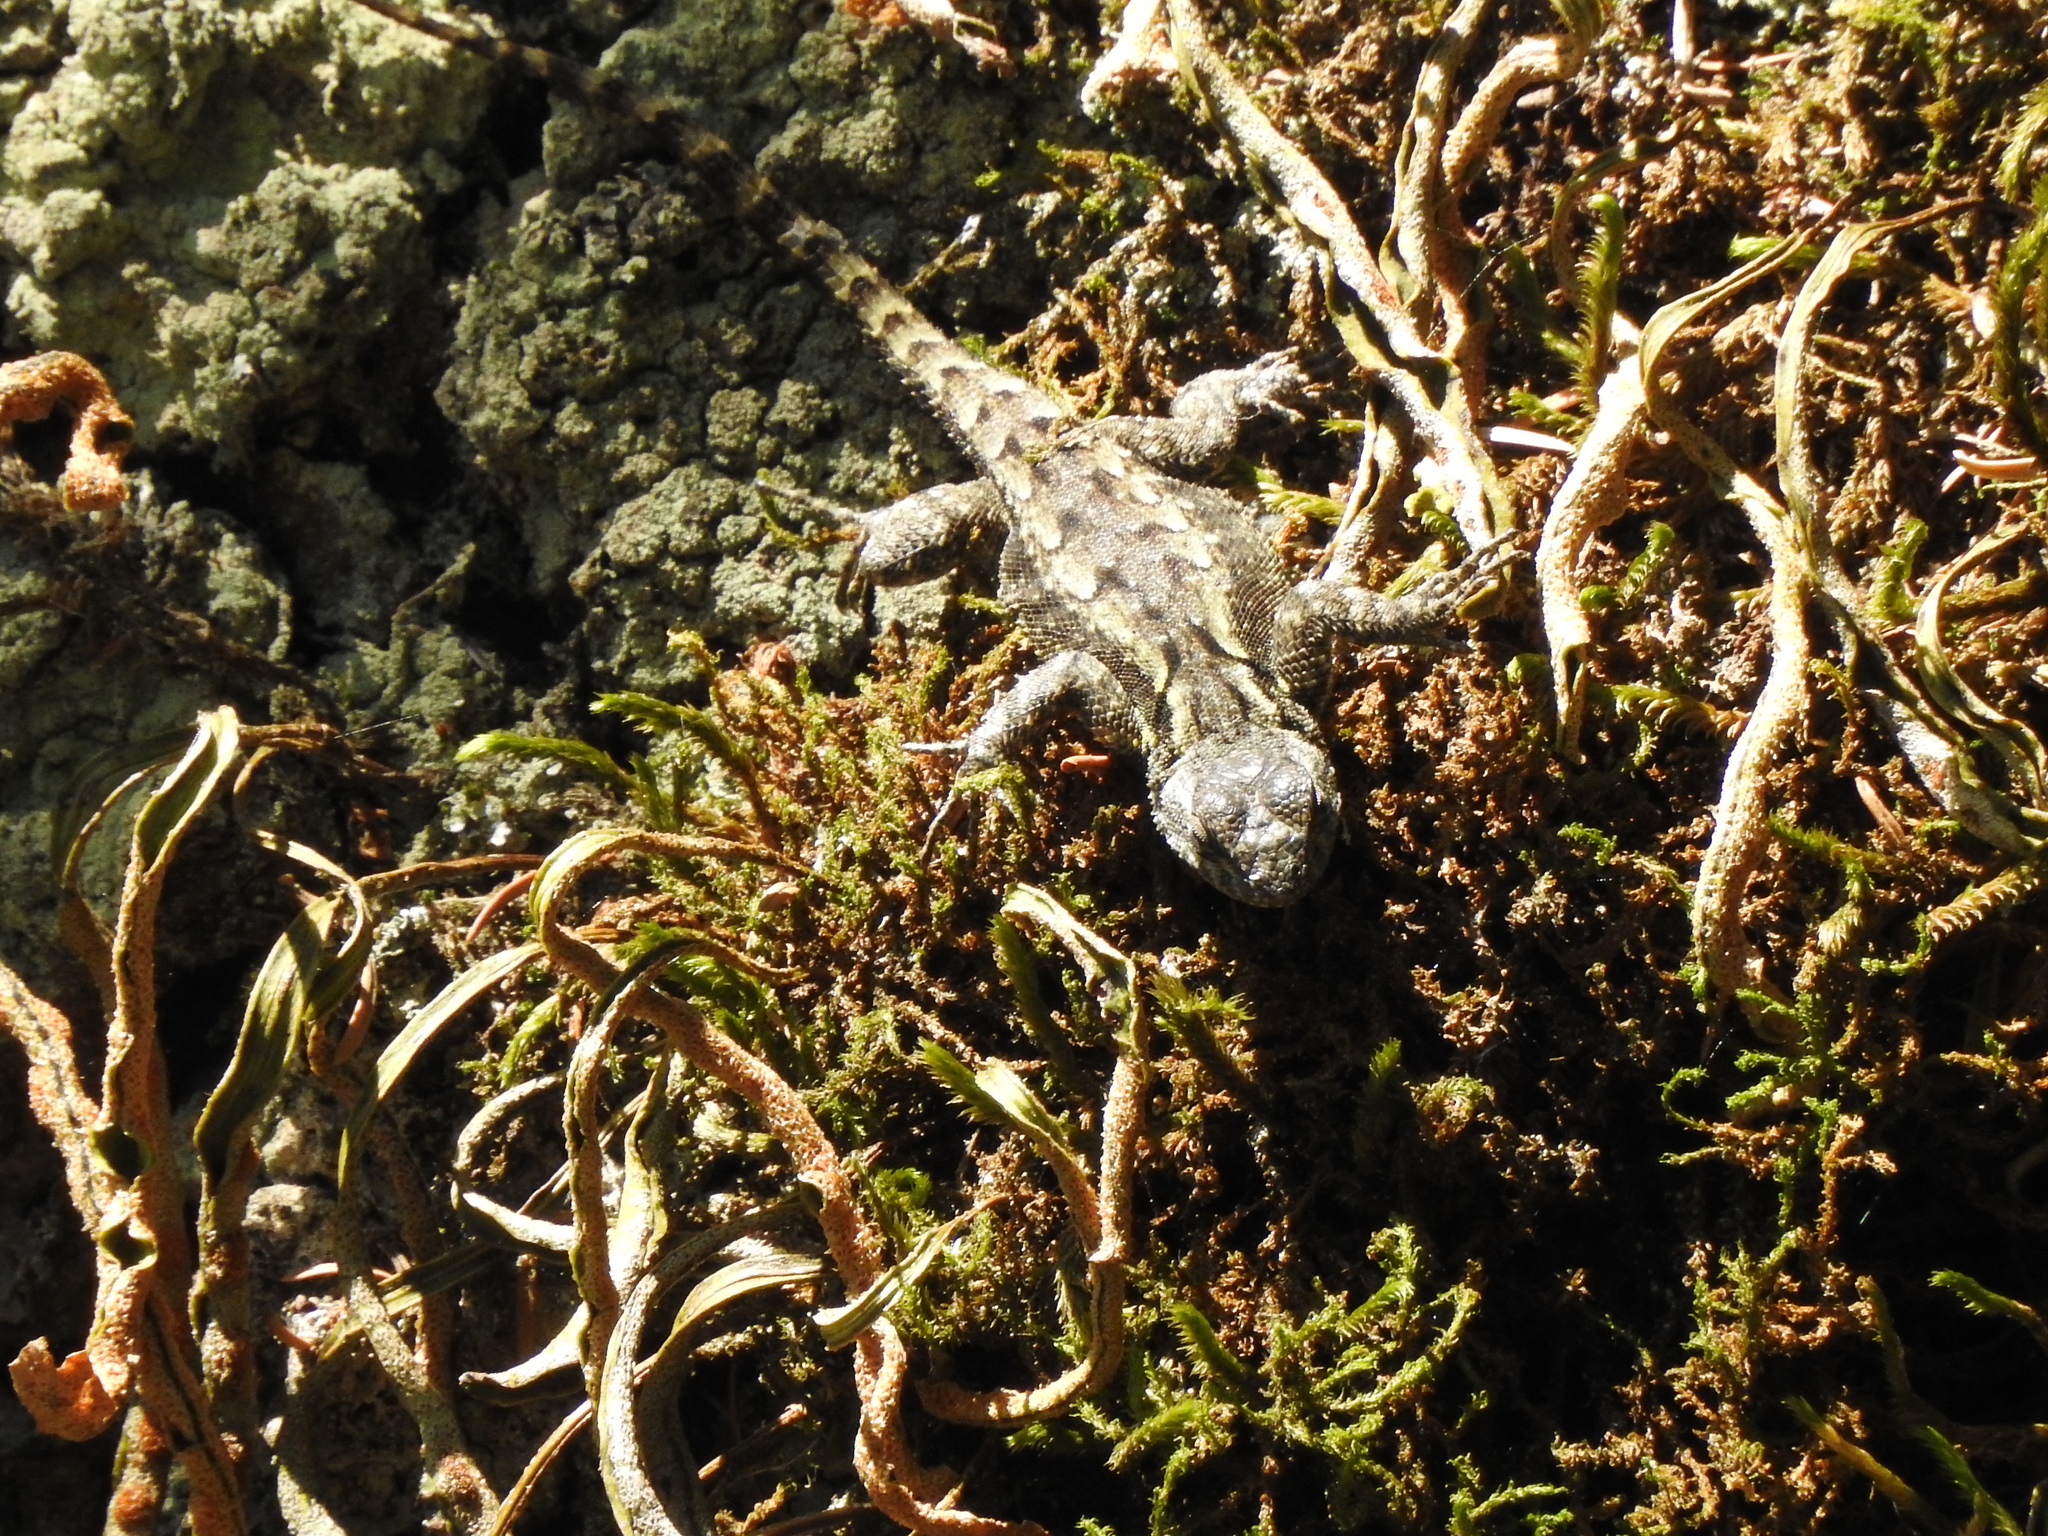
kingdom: Animalia
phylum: Chordata
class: Squamata
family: Phrynosomatidae
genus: Sceloporus
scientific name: Sceloporus anahuacus
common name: Anahuacan bunchgrass lizard
